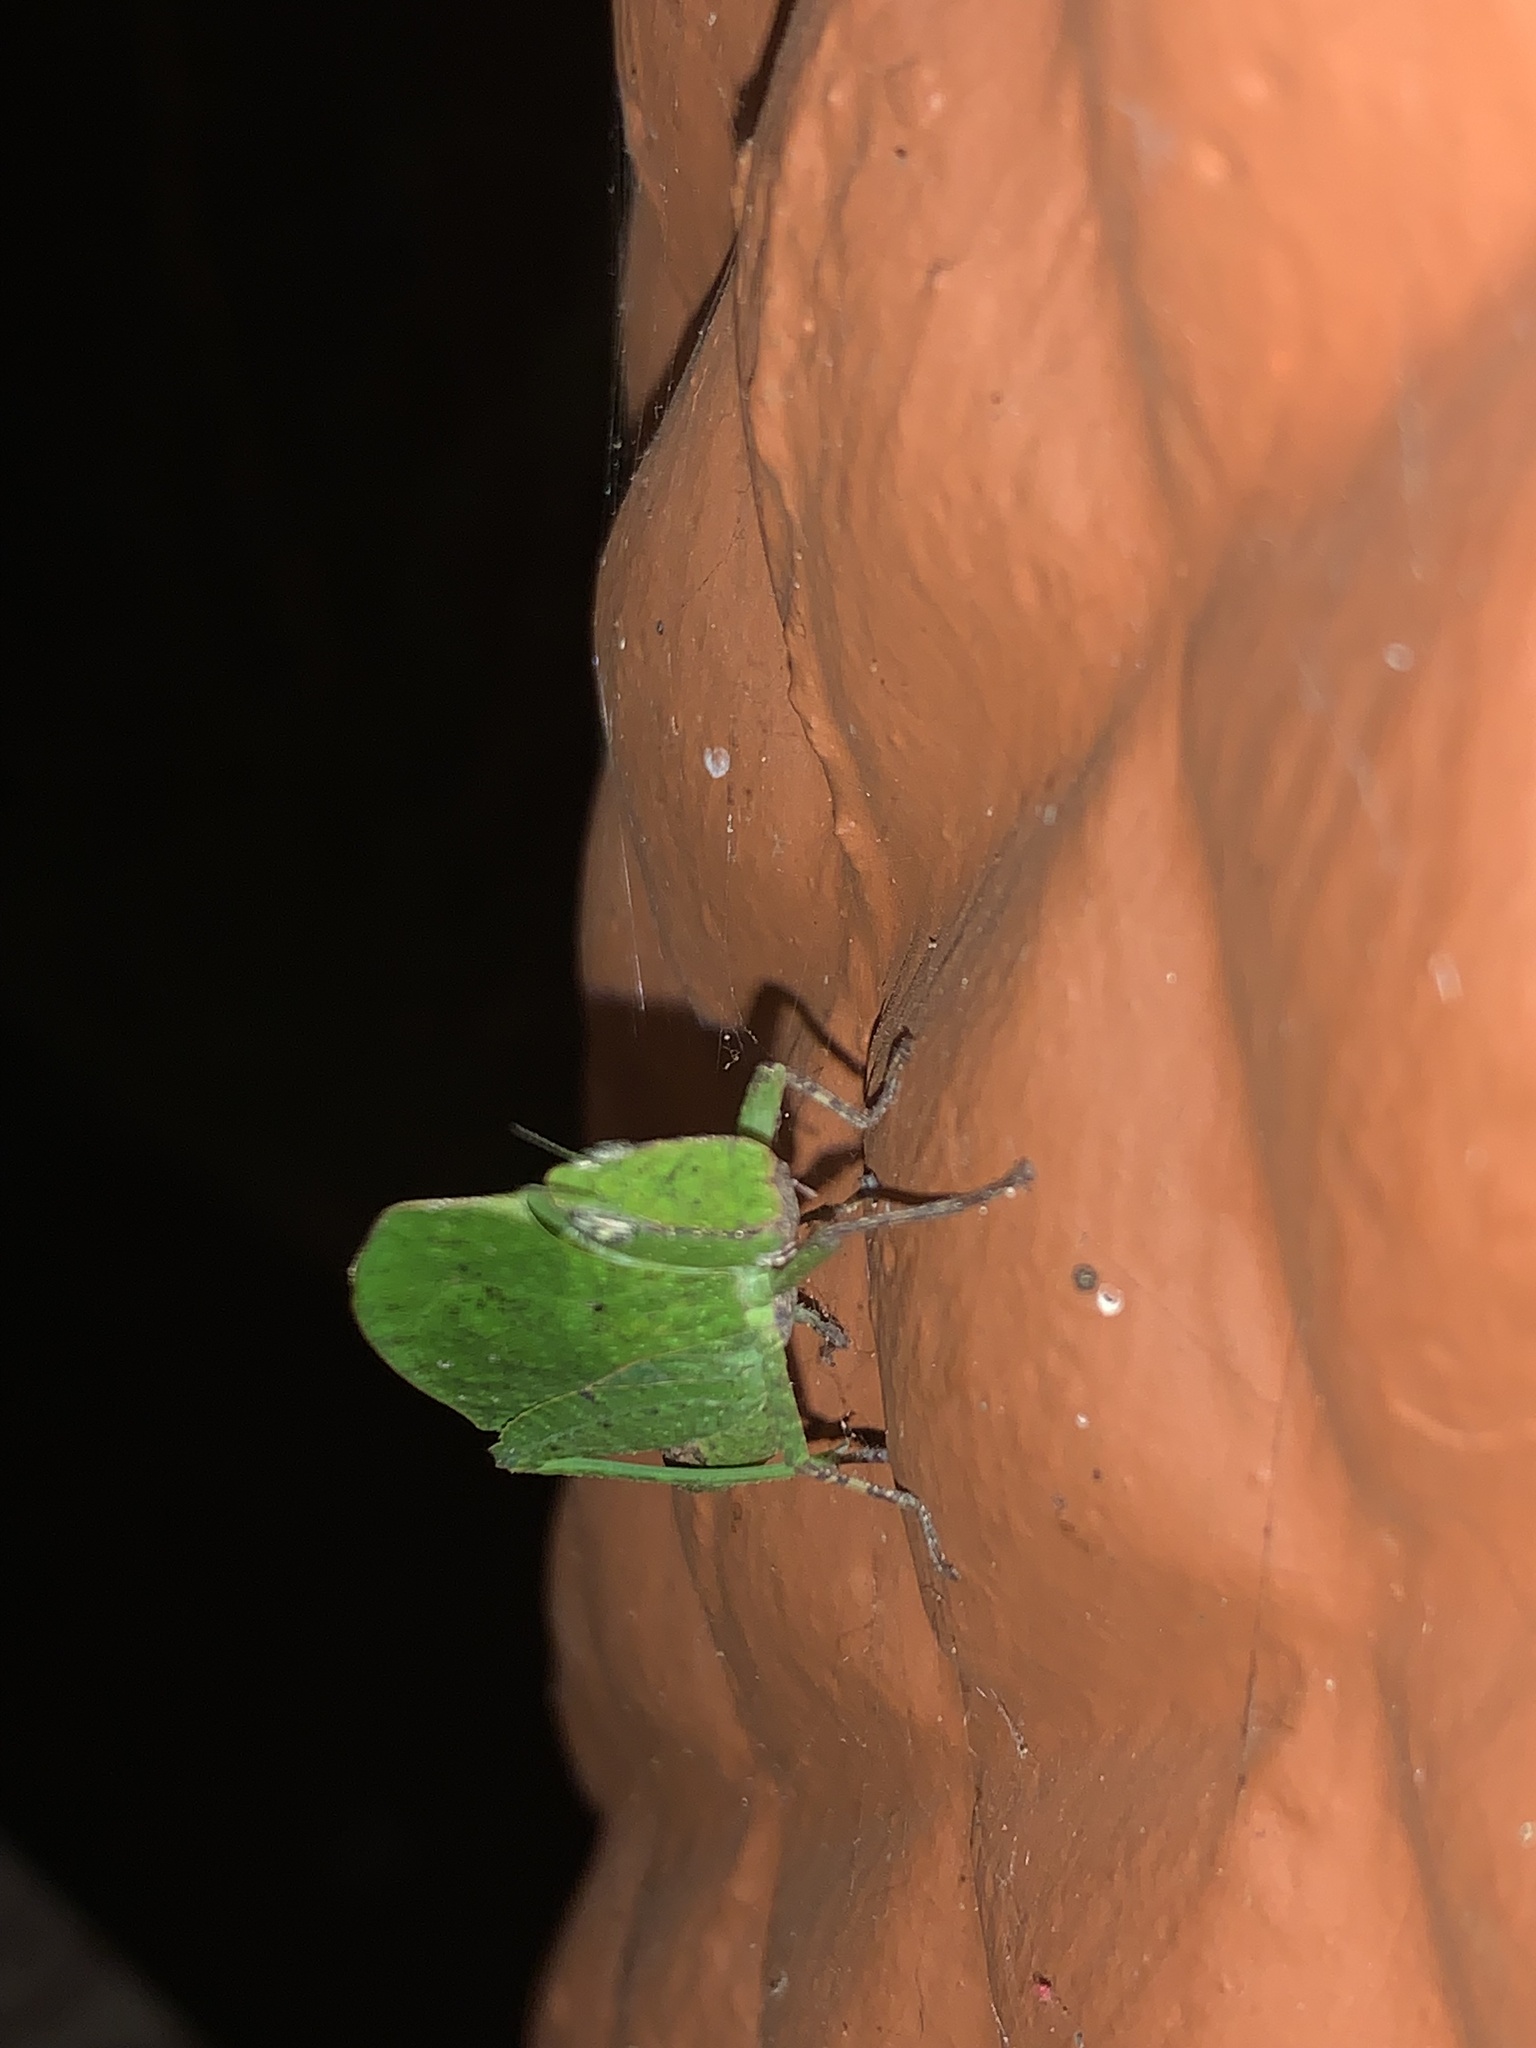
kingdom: Animalia
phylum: Arthropoda
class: Insecta
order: Orthoptera
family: Acrididae
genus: Teratodes
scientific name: Teratodes monticollis
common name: Hooded grasshopper
